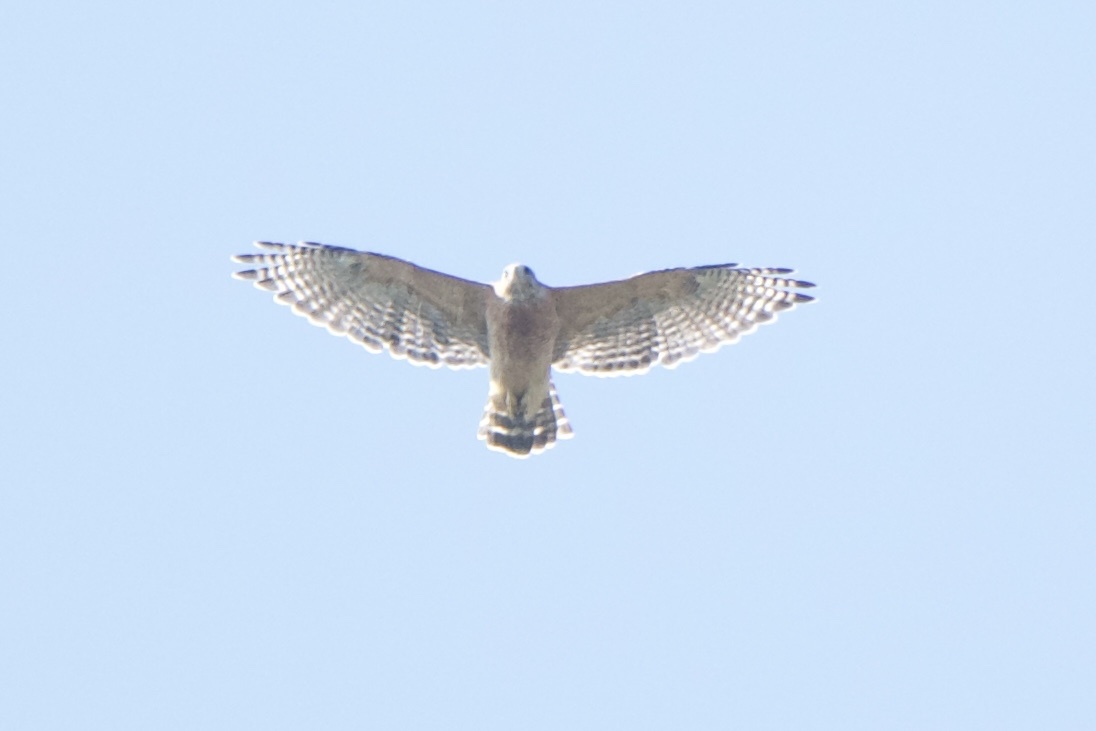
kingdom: Animalia
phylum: Chordata
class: Aves
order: Accipitriformes
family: Accipitridae
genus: Buteo
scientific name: Buteo lineatus
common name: Red-shouldered hawk
